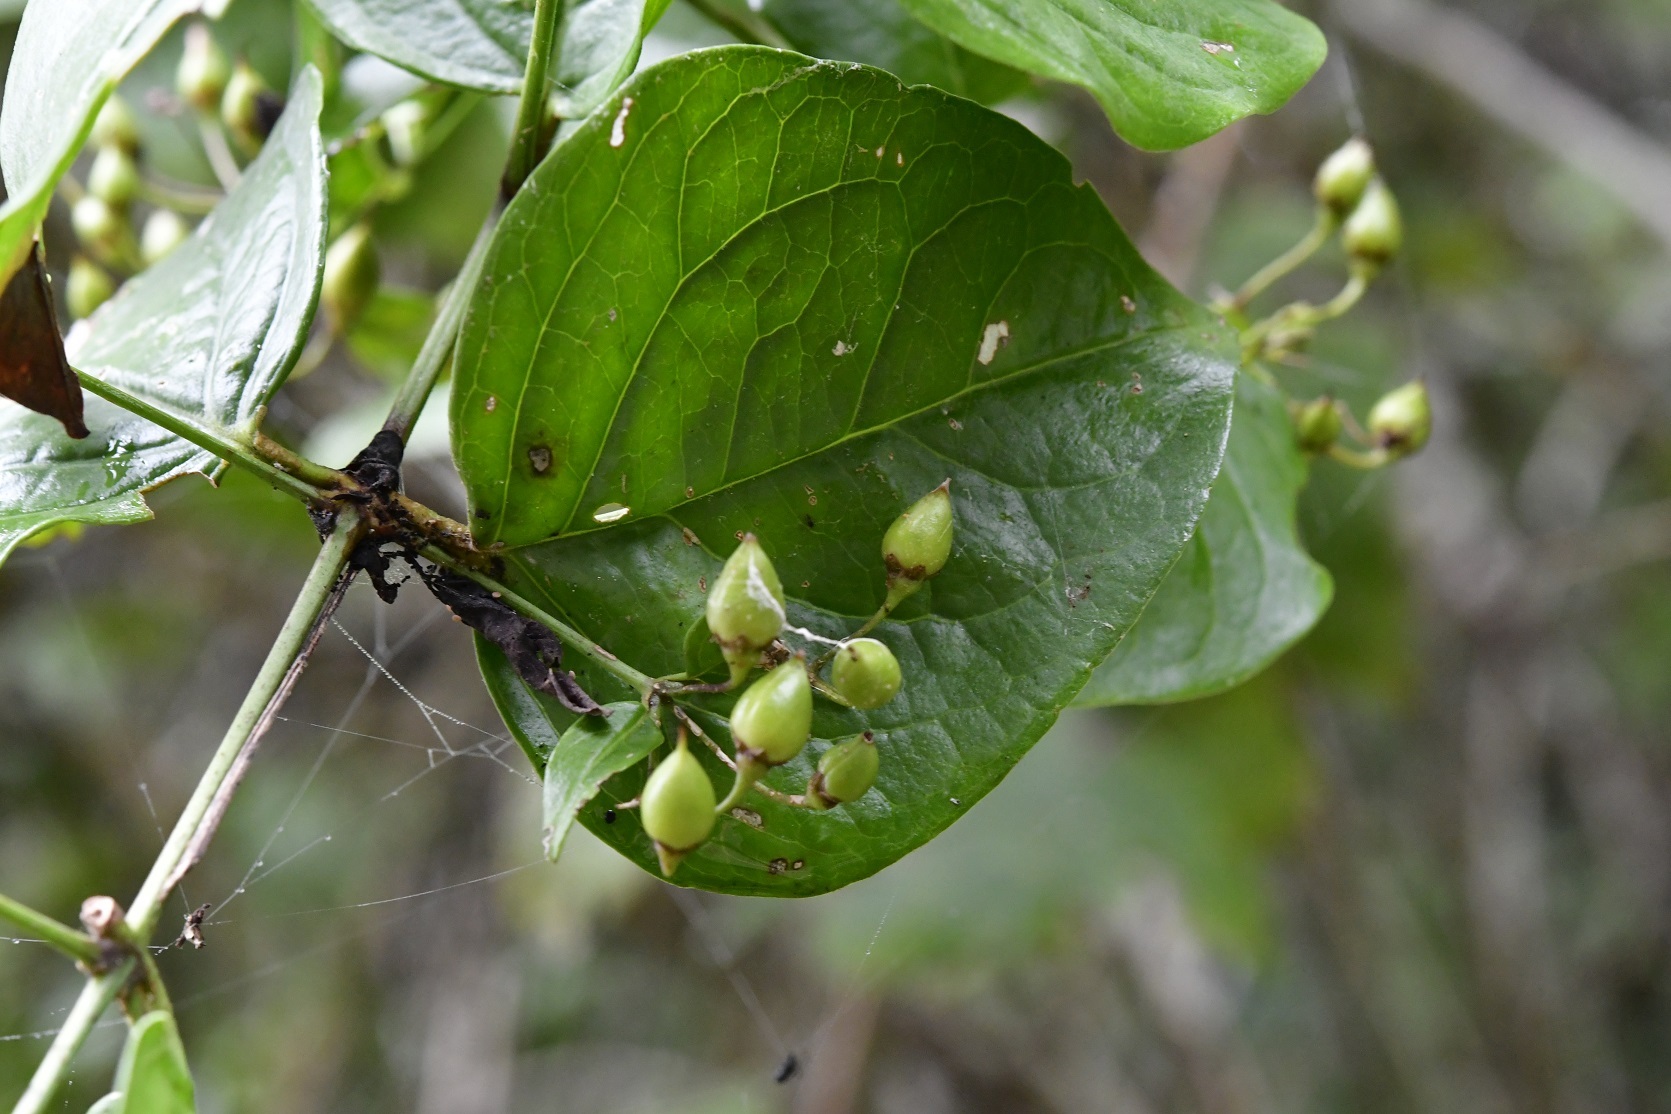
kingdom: Plantae
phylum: Tracheophyta
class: Magnoliopsida
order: Lamiales
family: Plantaginaceae
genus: Russelia
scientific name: Russelia contrerasii
